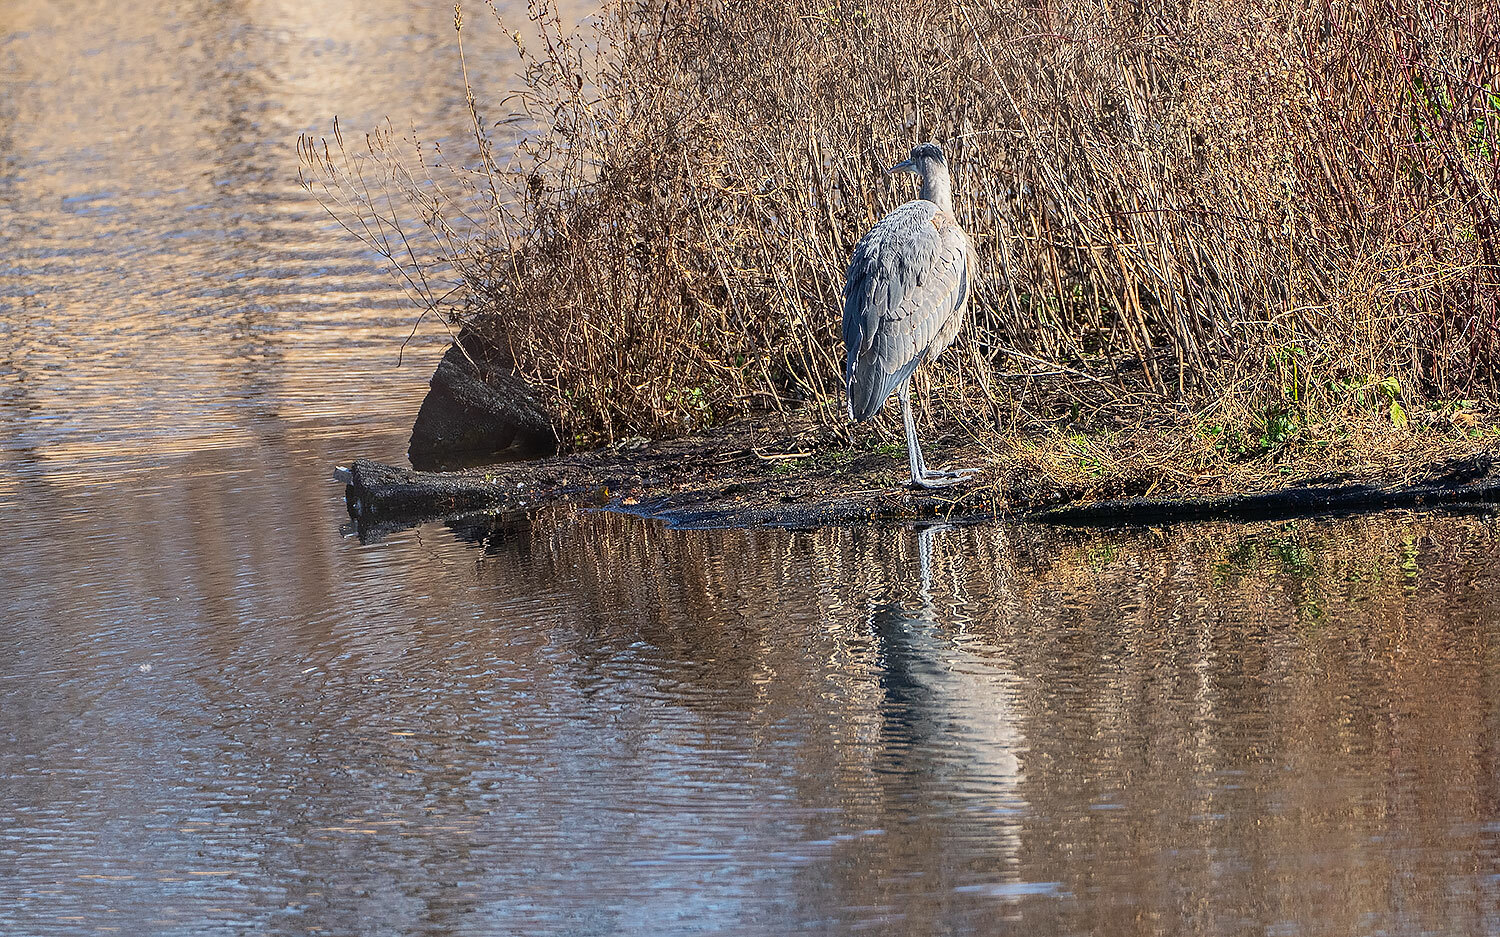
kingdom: Animalia
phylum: Chordata
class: Aves
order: Pelecaniformes
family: Ardeidae
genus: Ardea
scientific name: Ardea herodias
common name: Great blue heron
